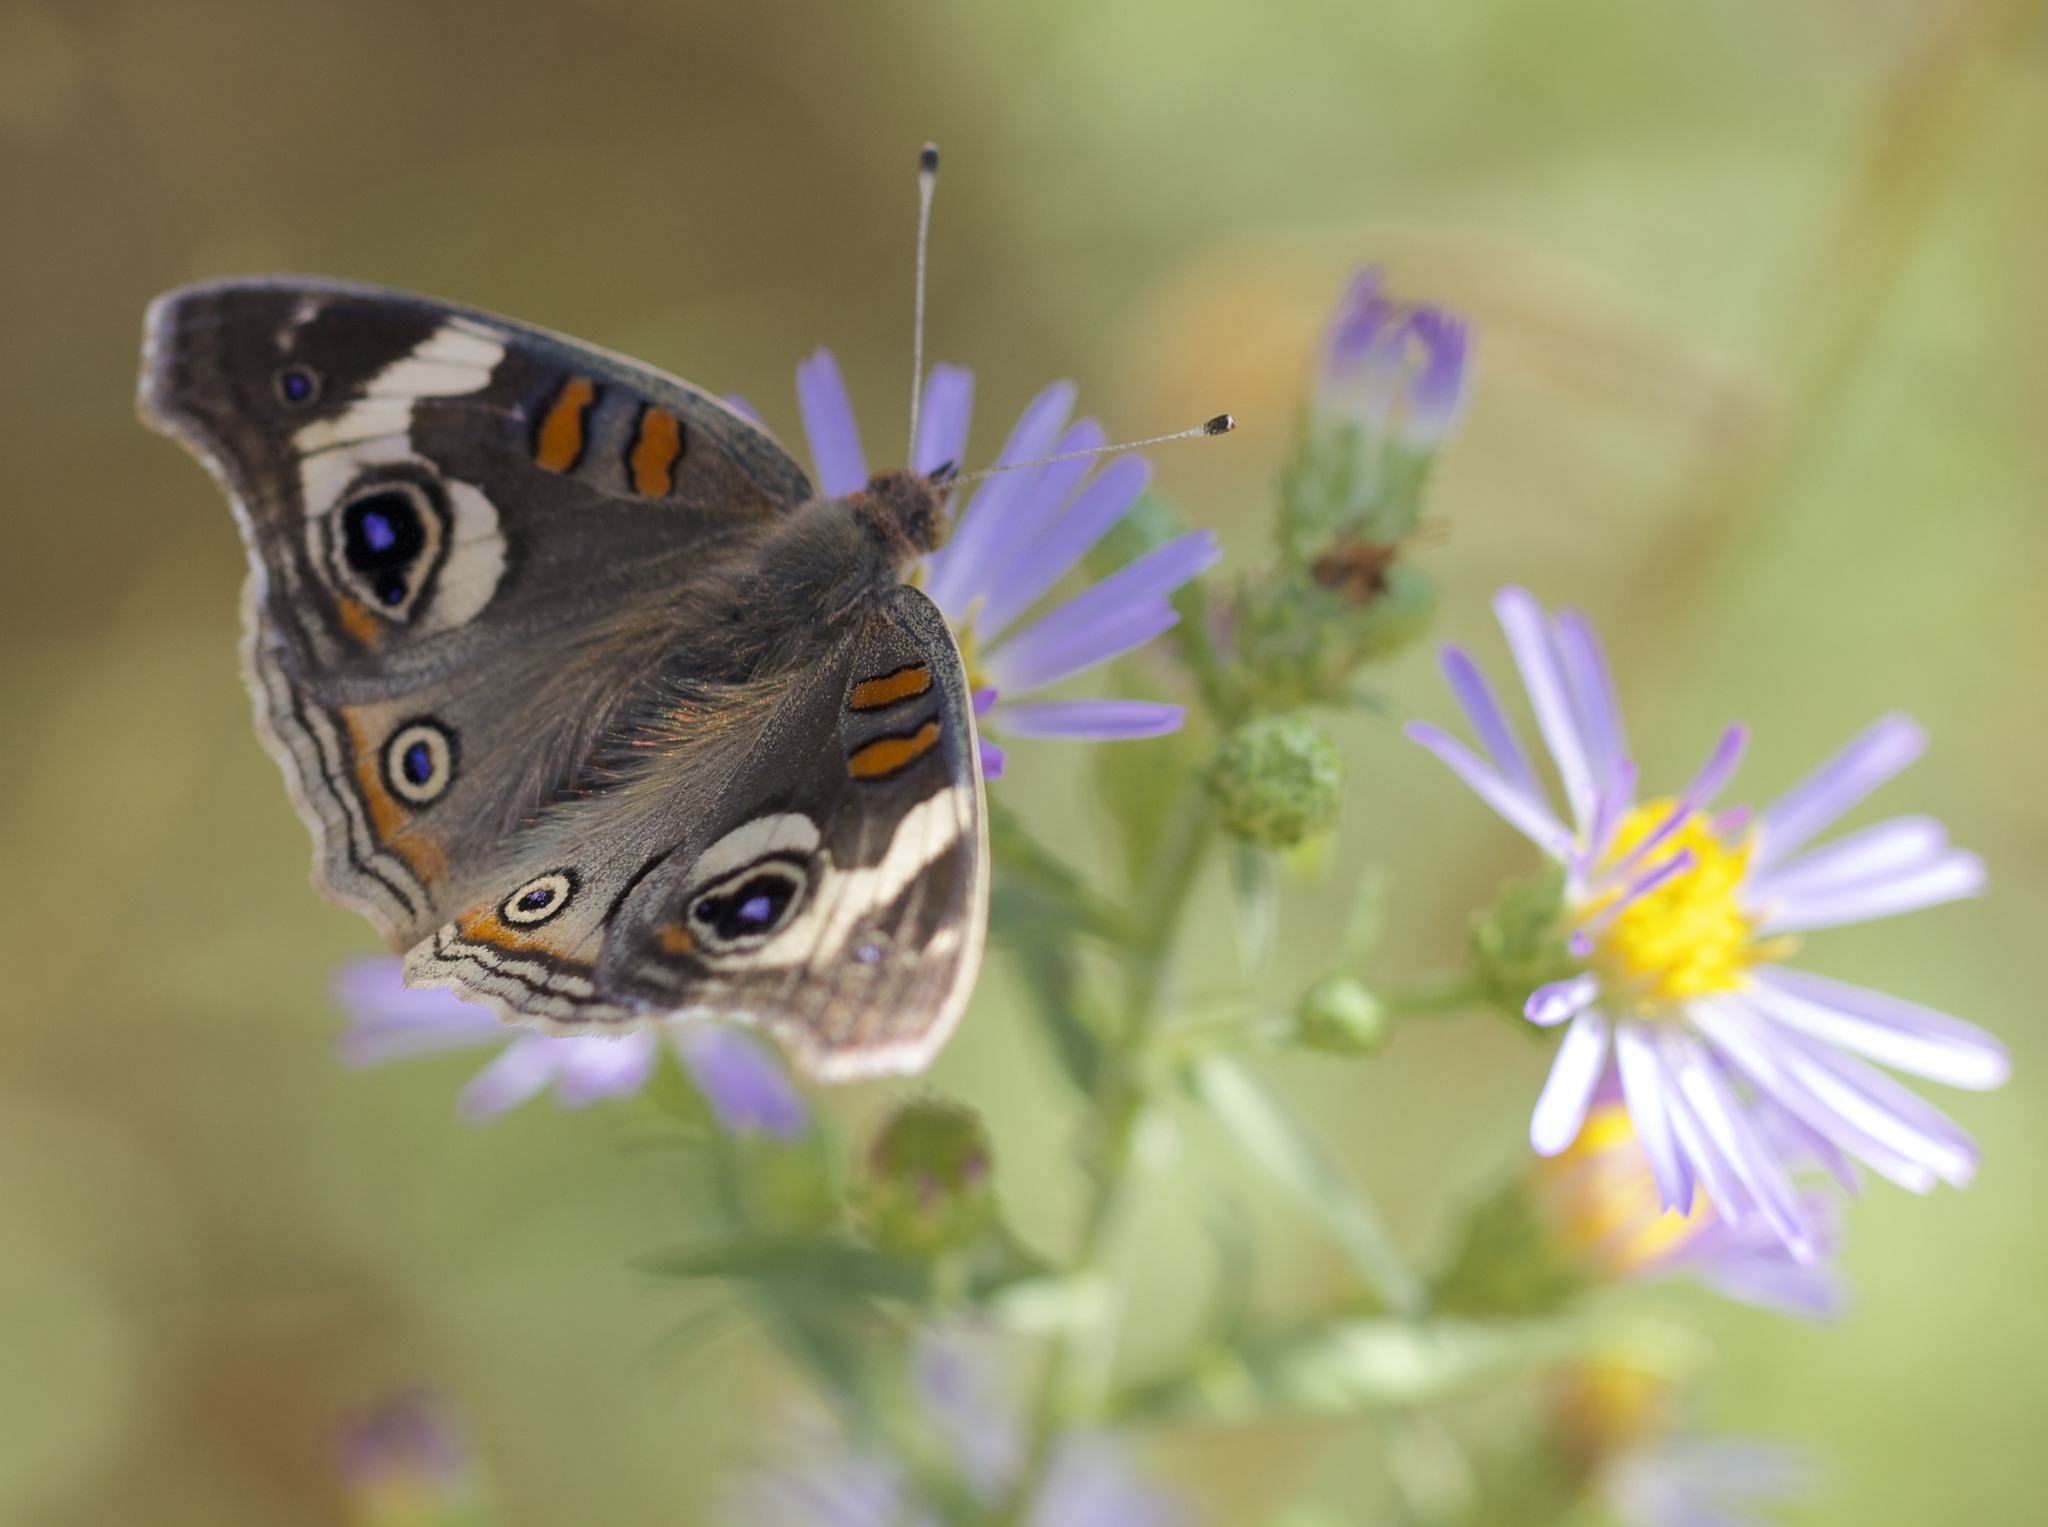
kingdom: Animalia
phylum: Arthropoda
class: Insecta
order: Lepidoptera
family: Nymphalidae
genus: Junonia
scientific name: Junonia grisea
